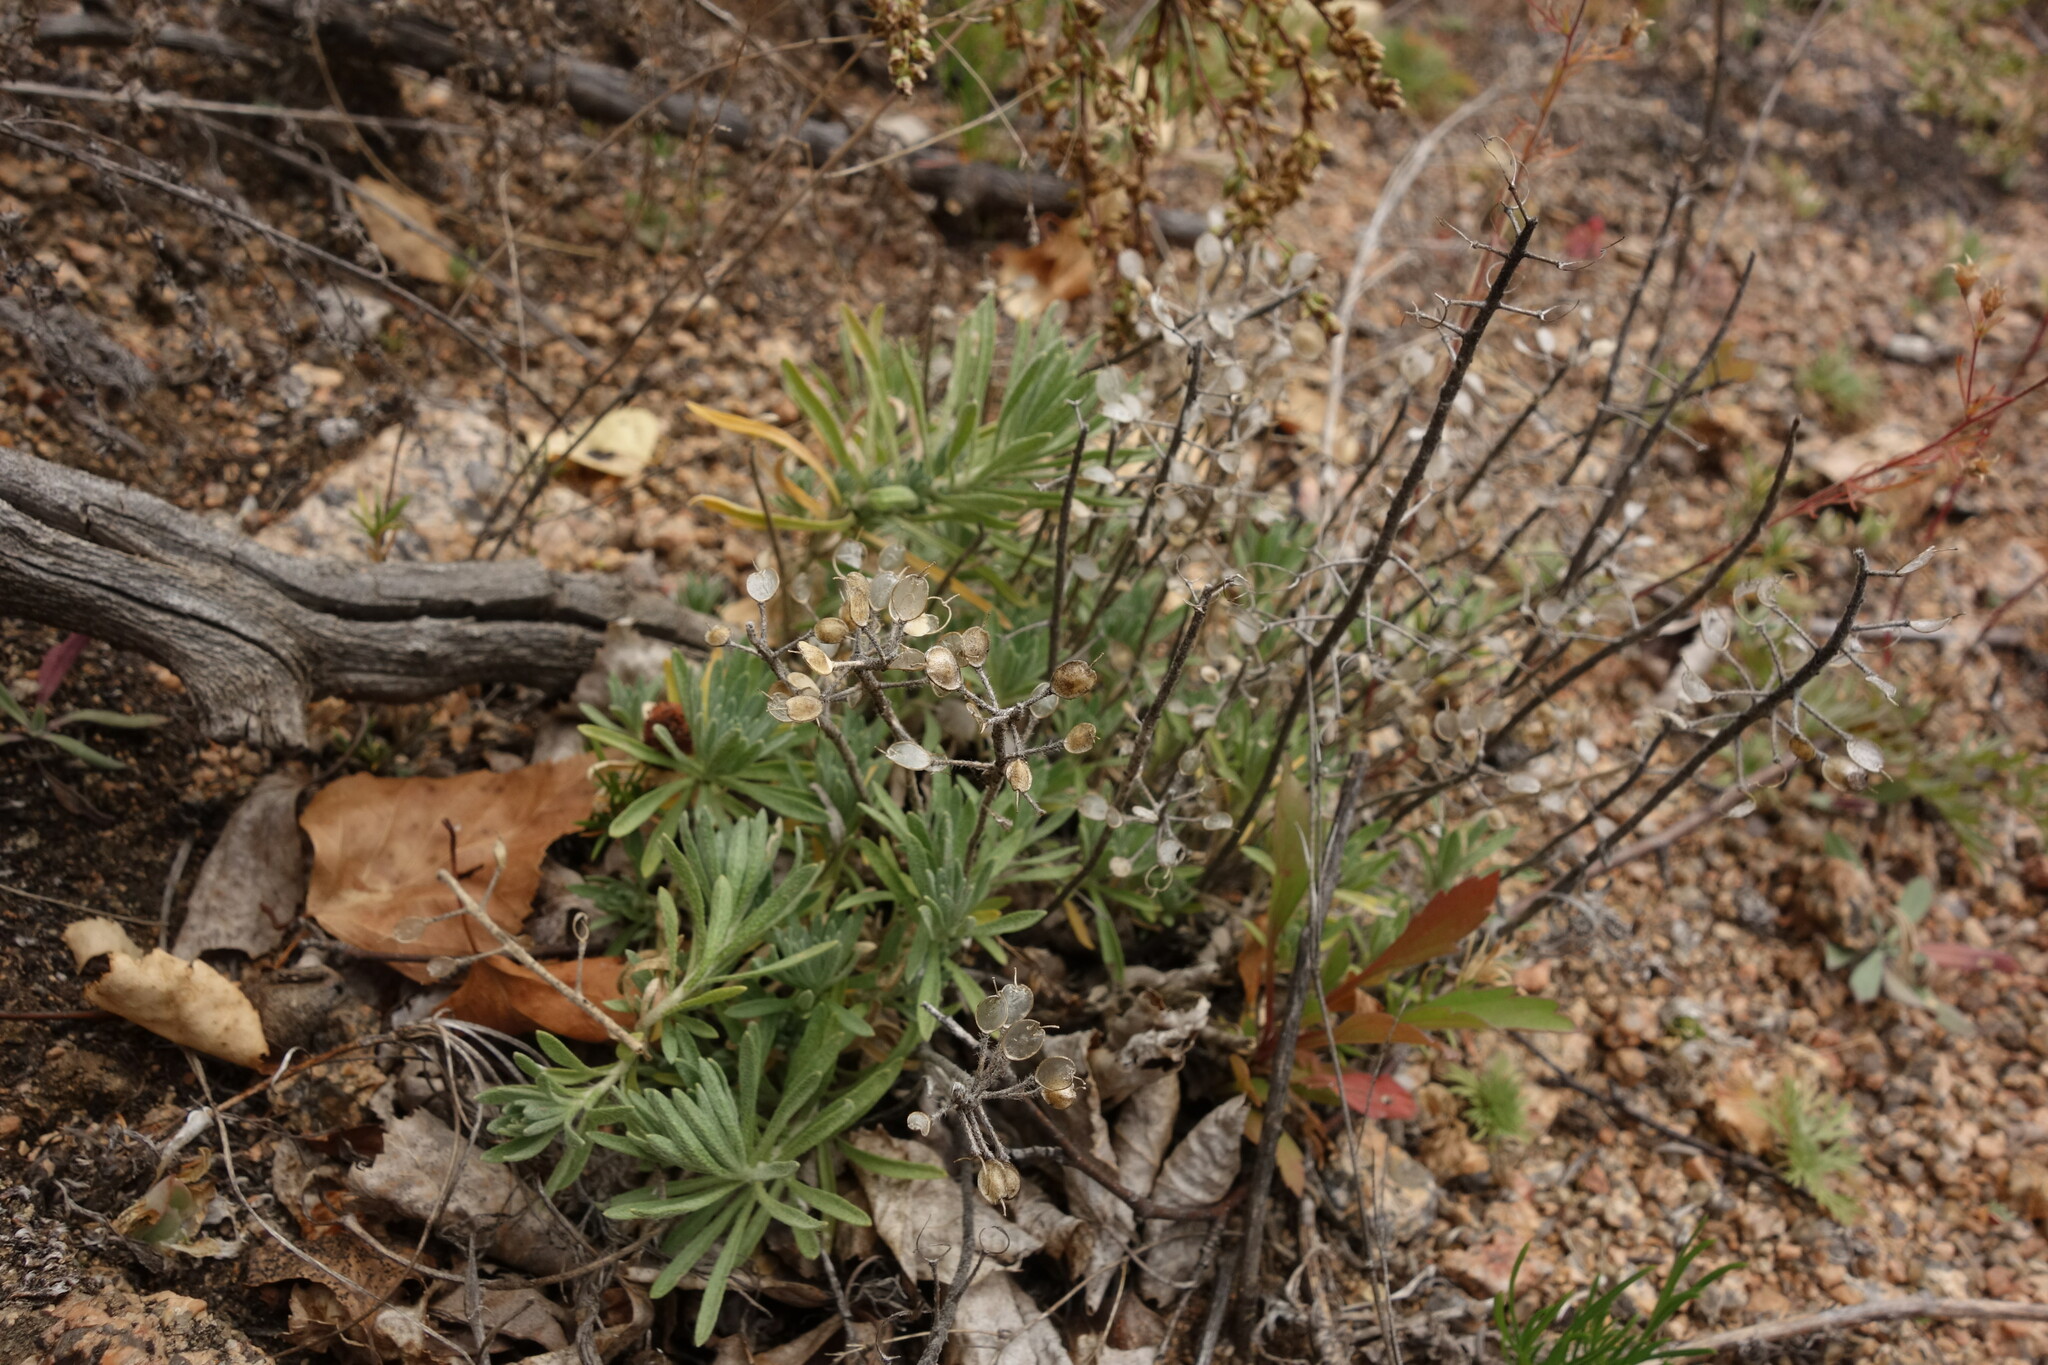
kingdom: Plantae
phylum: Tracheophyta
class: Magnoliopsida
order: Brassicales
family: Brassicaceae
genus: Alyssum
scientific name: Alyssum lenense
